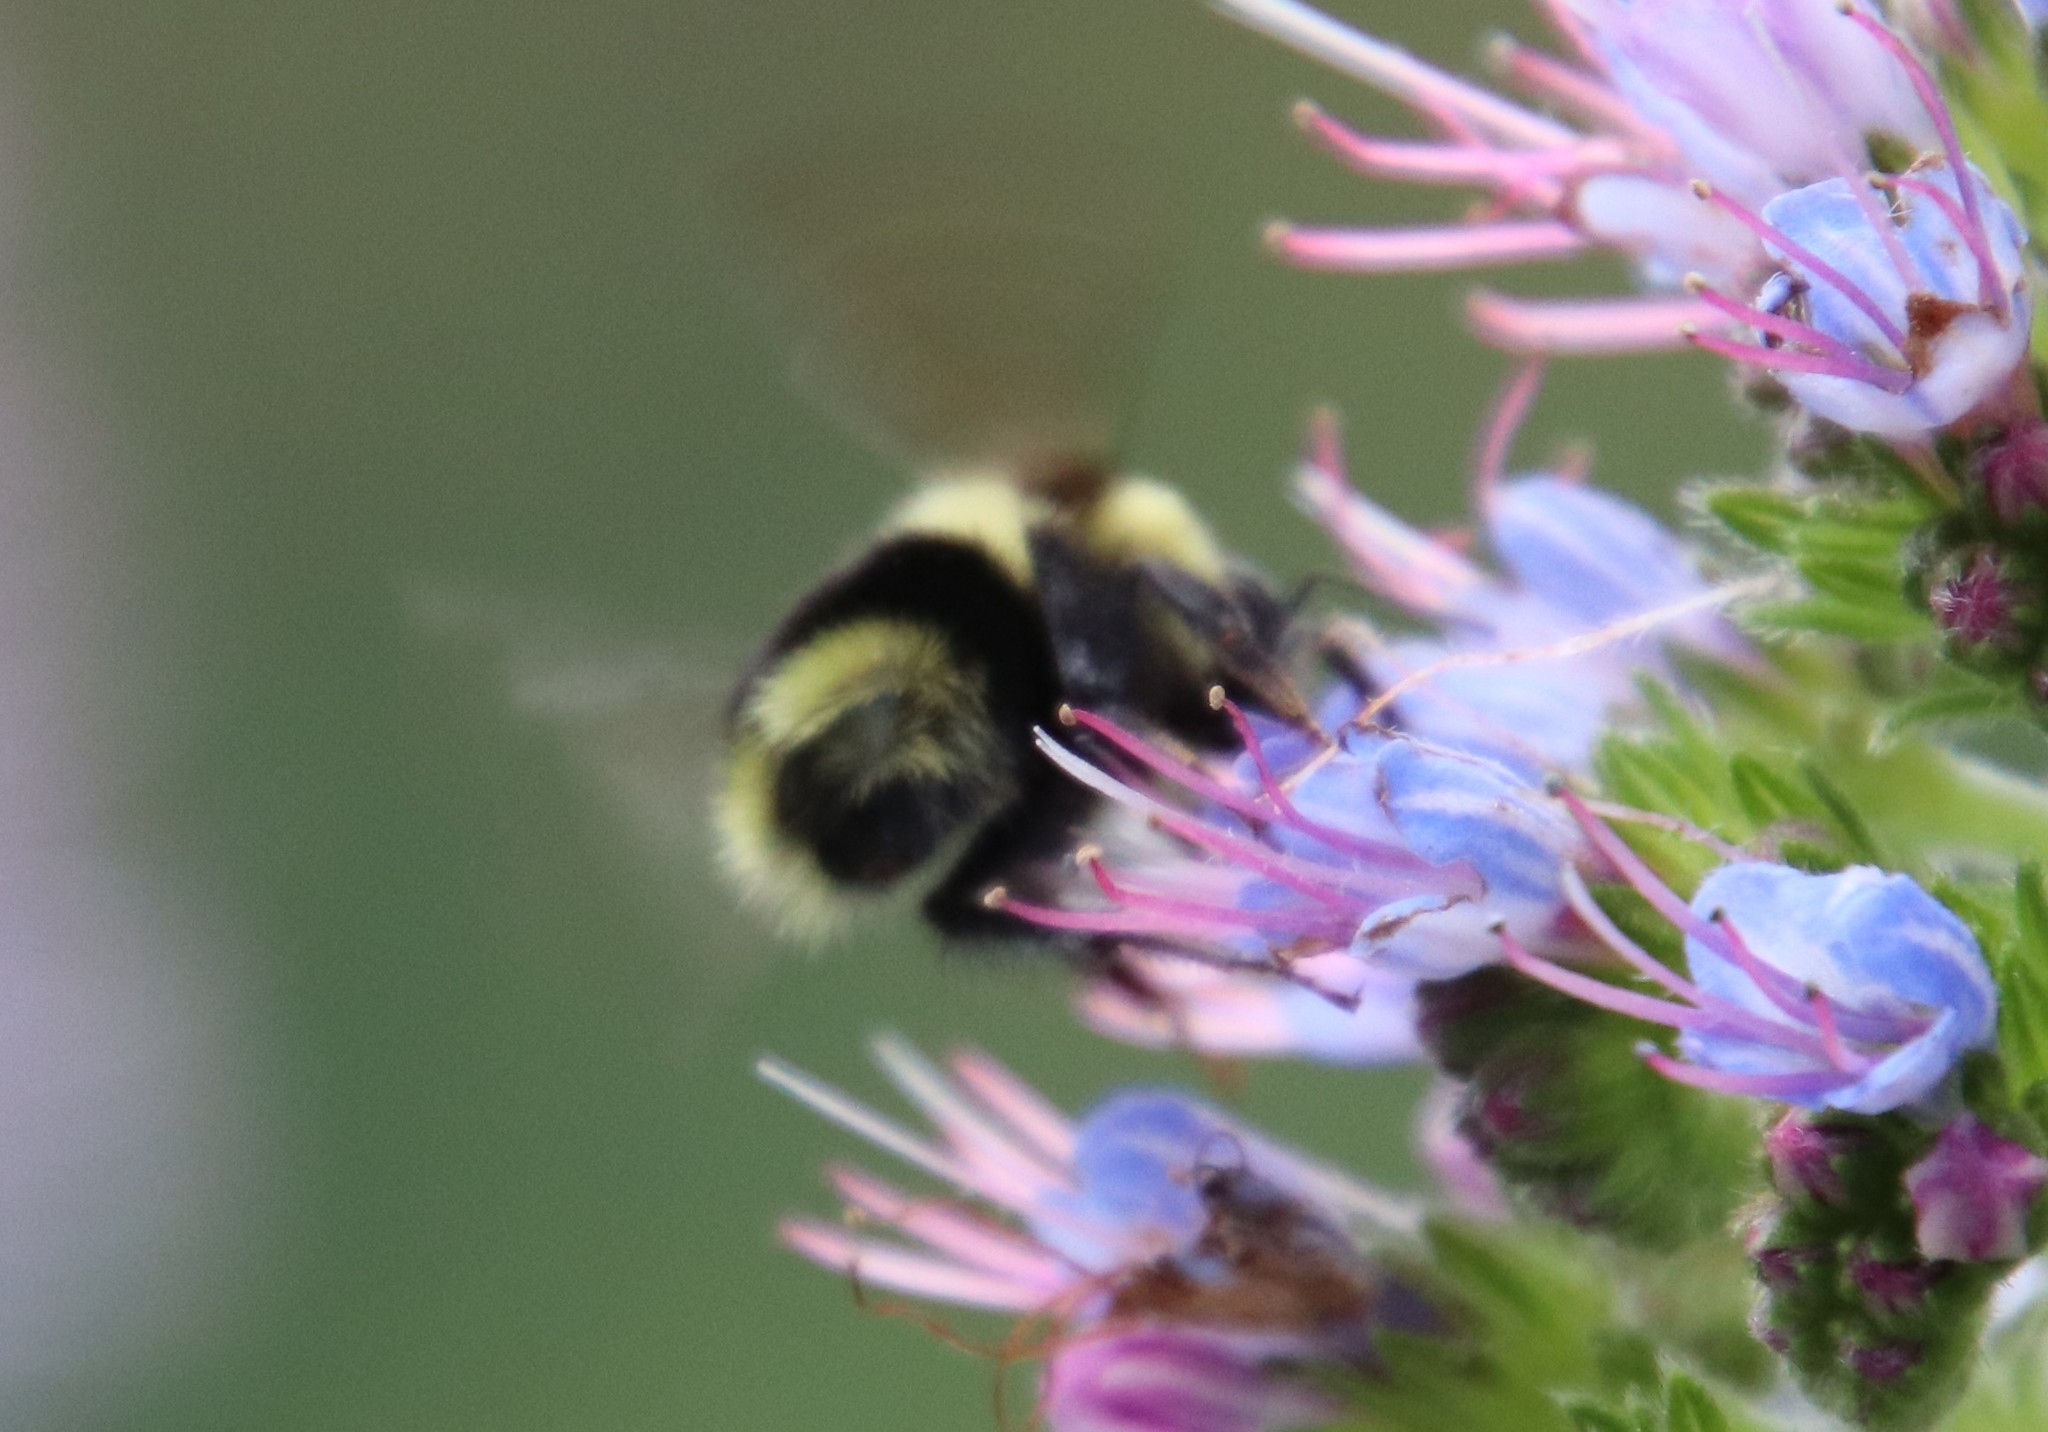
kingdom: Animalia
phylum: Arthropoda
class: Insecta
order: Hymenoptera
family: Apidae
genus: Bombus
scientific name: Bombus melanopygus
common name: Black tail bumble bee
